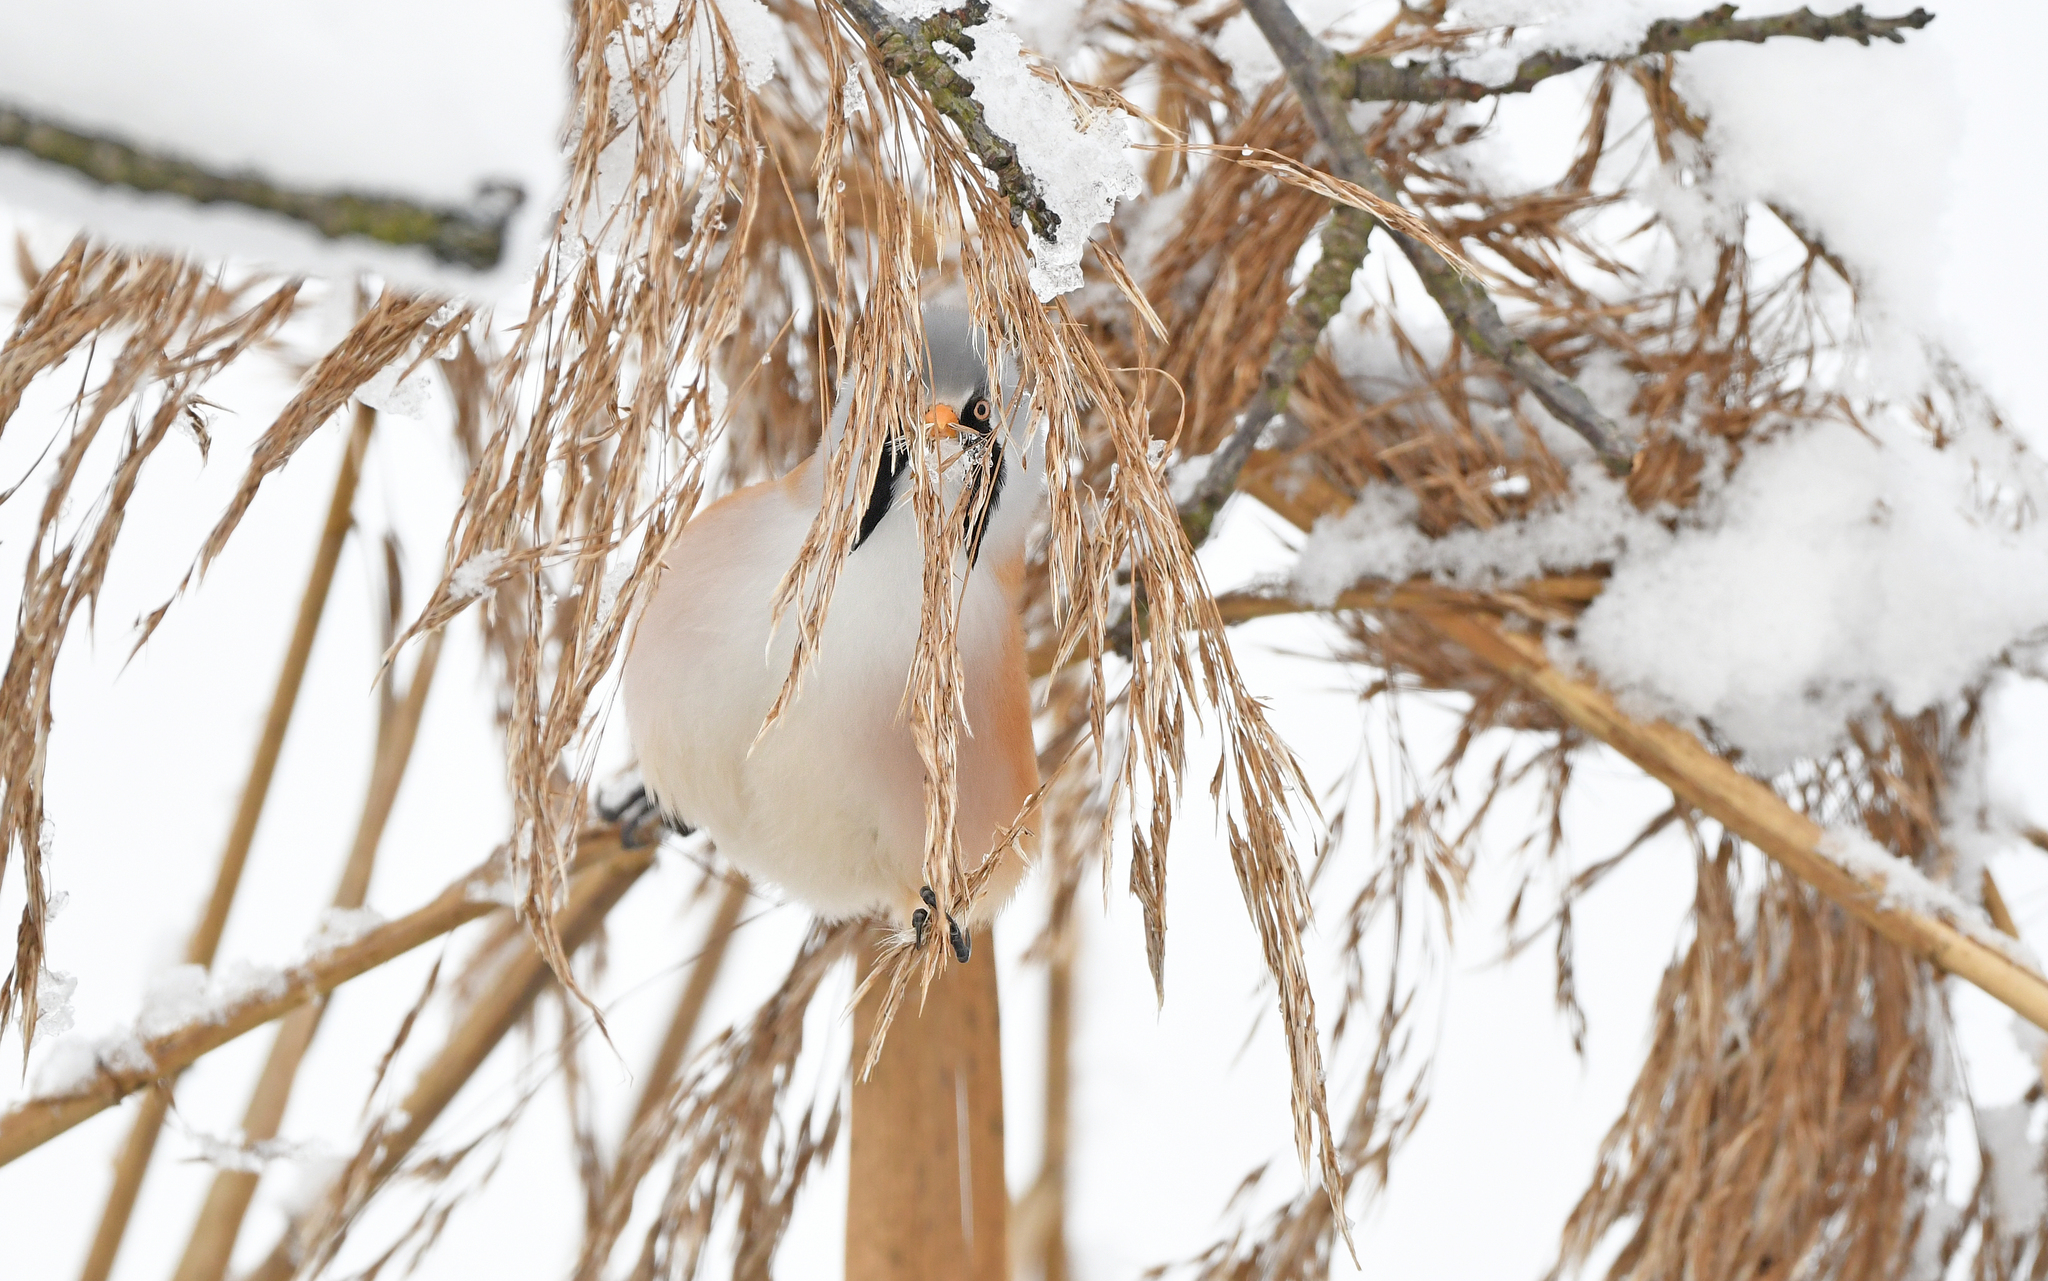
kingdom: Animalia
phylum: Chordata
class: Aves
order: Passeriformes
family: Panuridae
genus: Panurus
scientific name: Panurus biarmicus
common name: Bearded reedling
